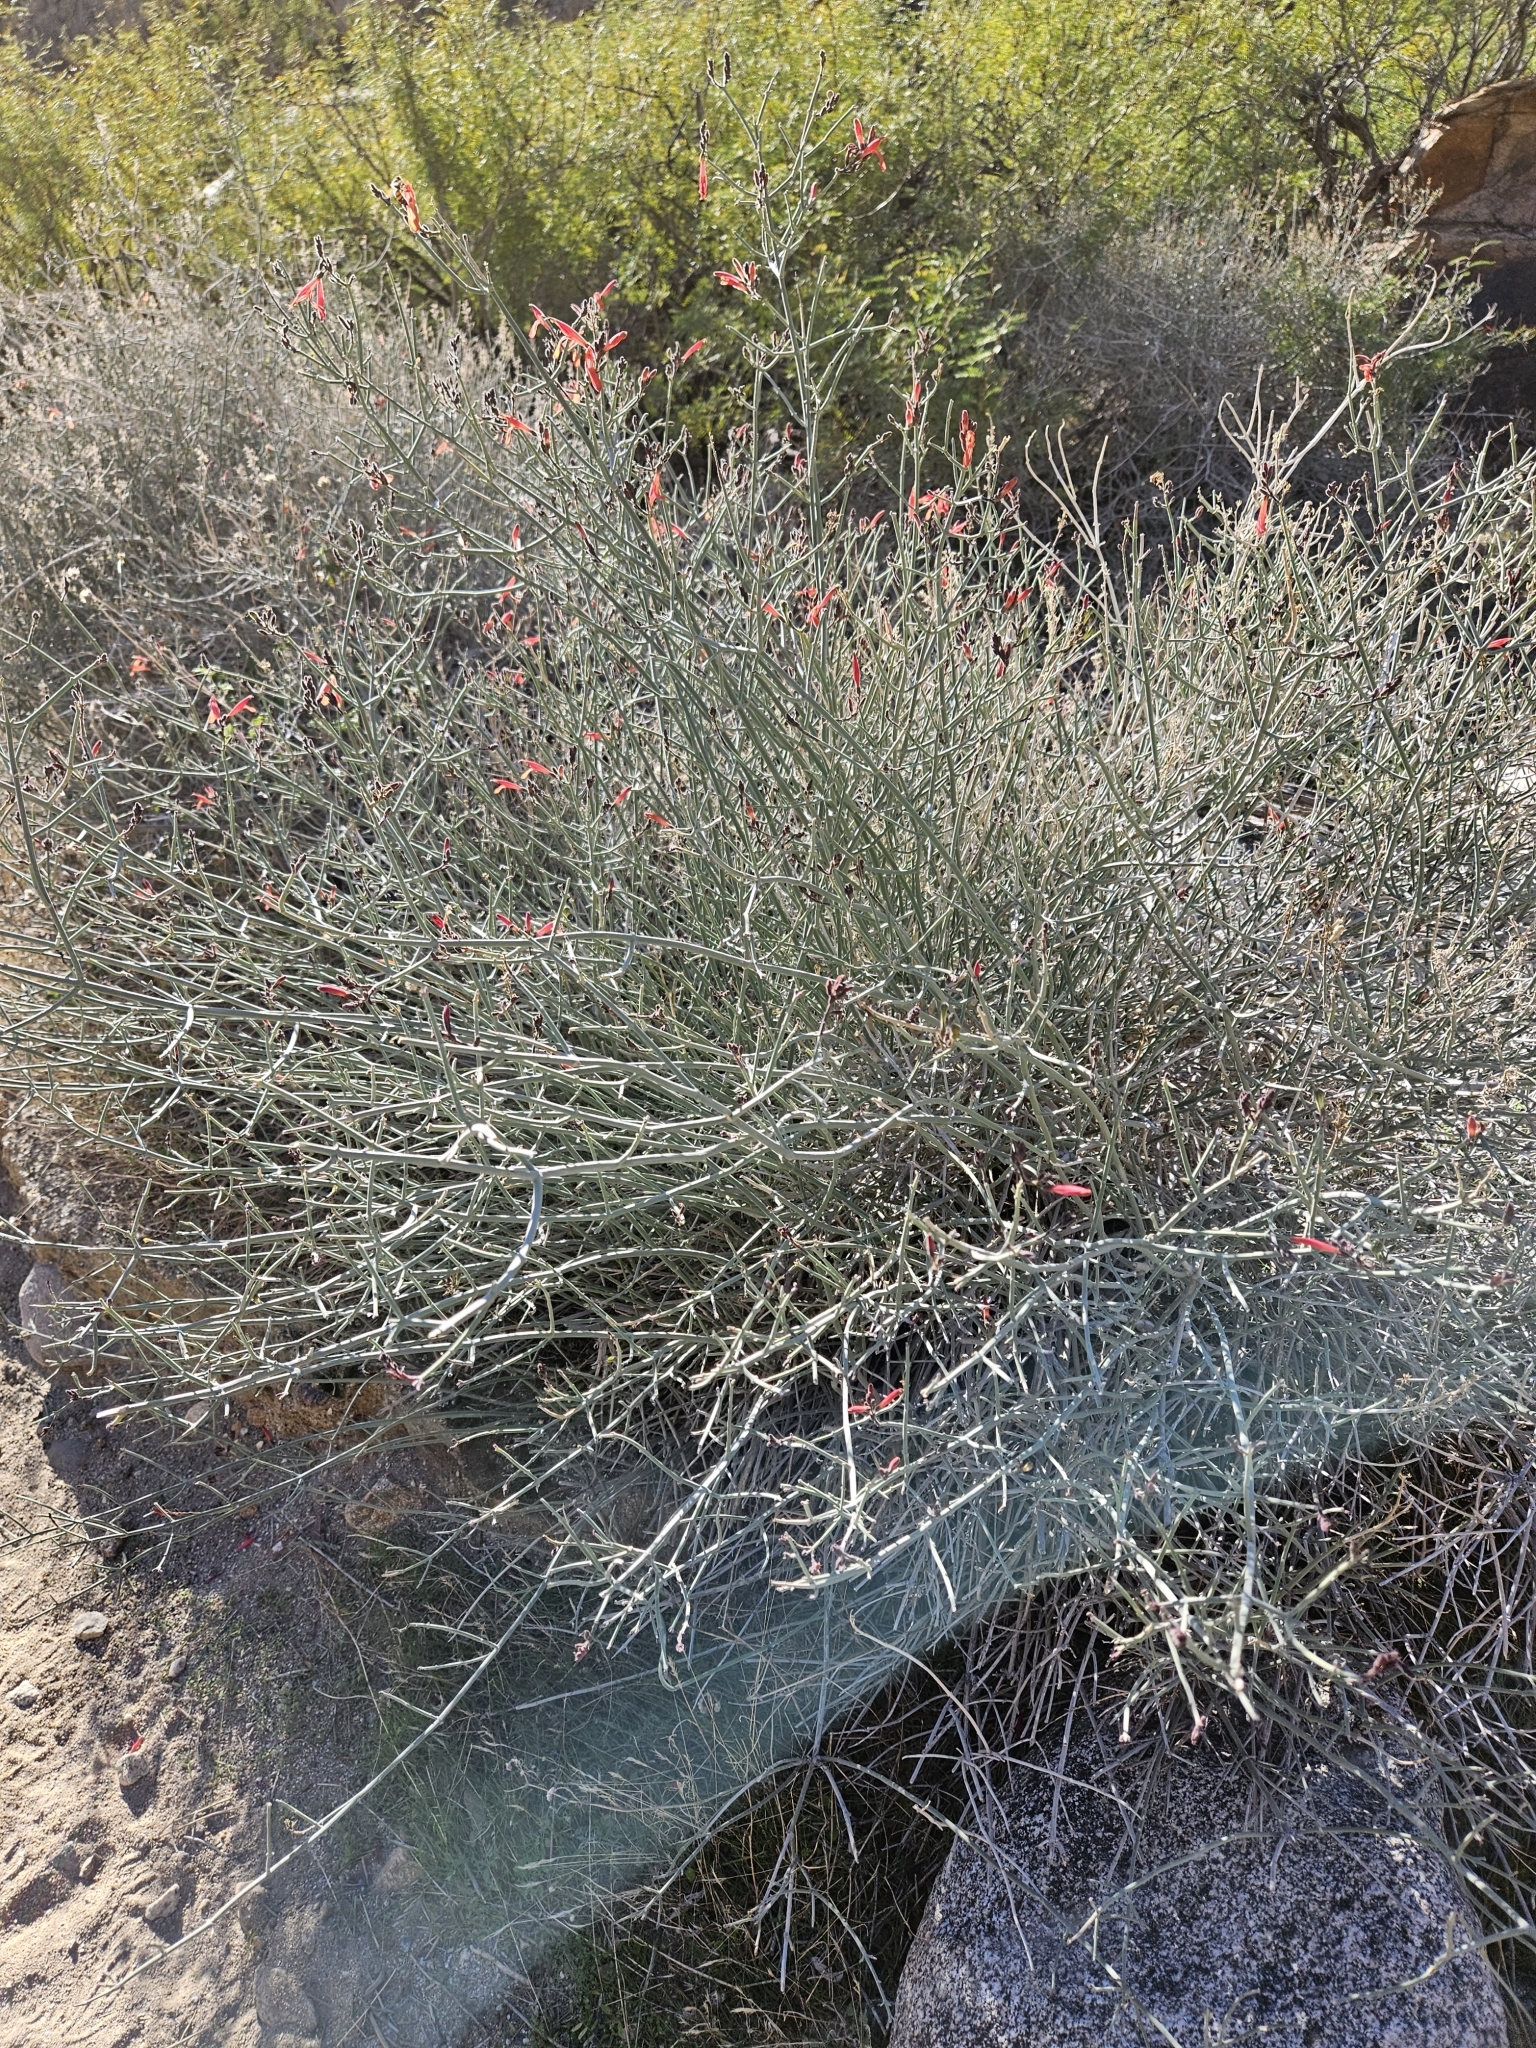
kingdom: Plantae
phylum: Tracheophyta
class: Magnoliopsida
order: Lamiales
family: Acanthaceae
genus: Justicia
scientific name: Justicia californica
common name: Chuparosa-honeysuckle
